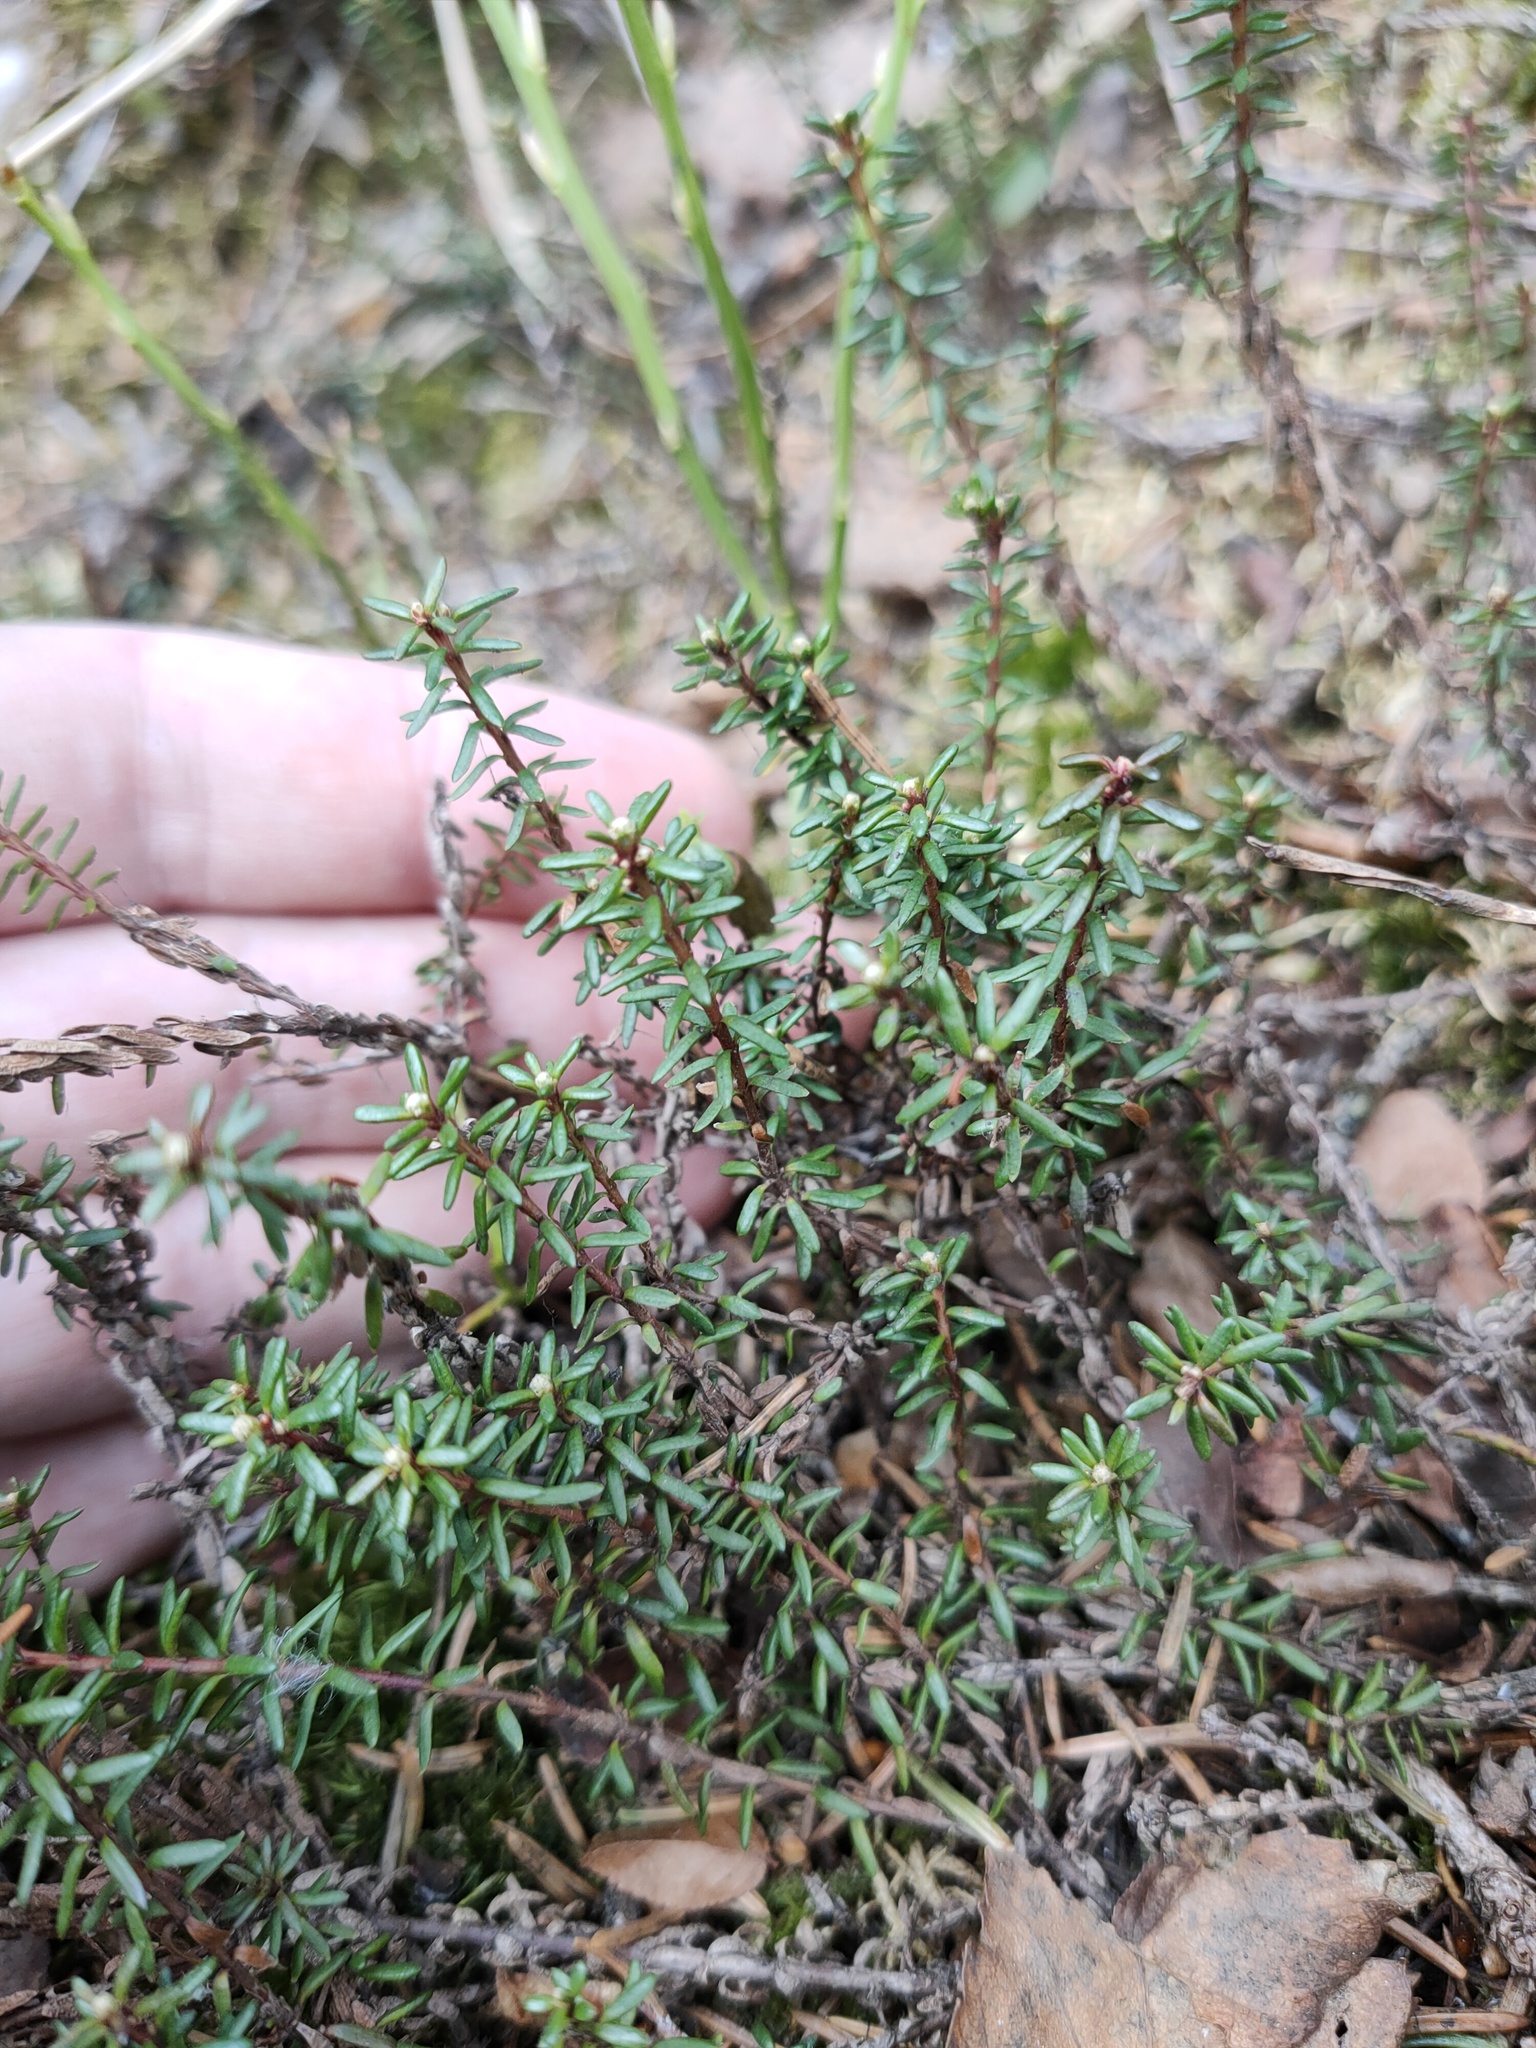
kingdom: Plantae
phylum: Tracheophyta
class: Magnoliopsida
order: Ericales
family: Ericaceae
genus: Empetrum
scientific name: Empetrum nigrum
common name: Black crowberry
